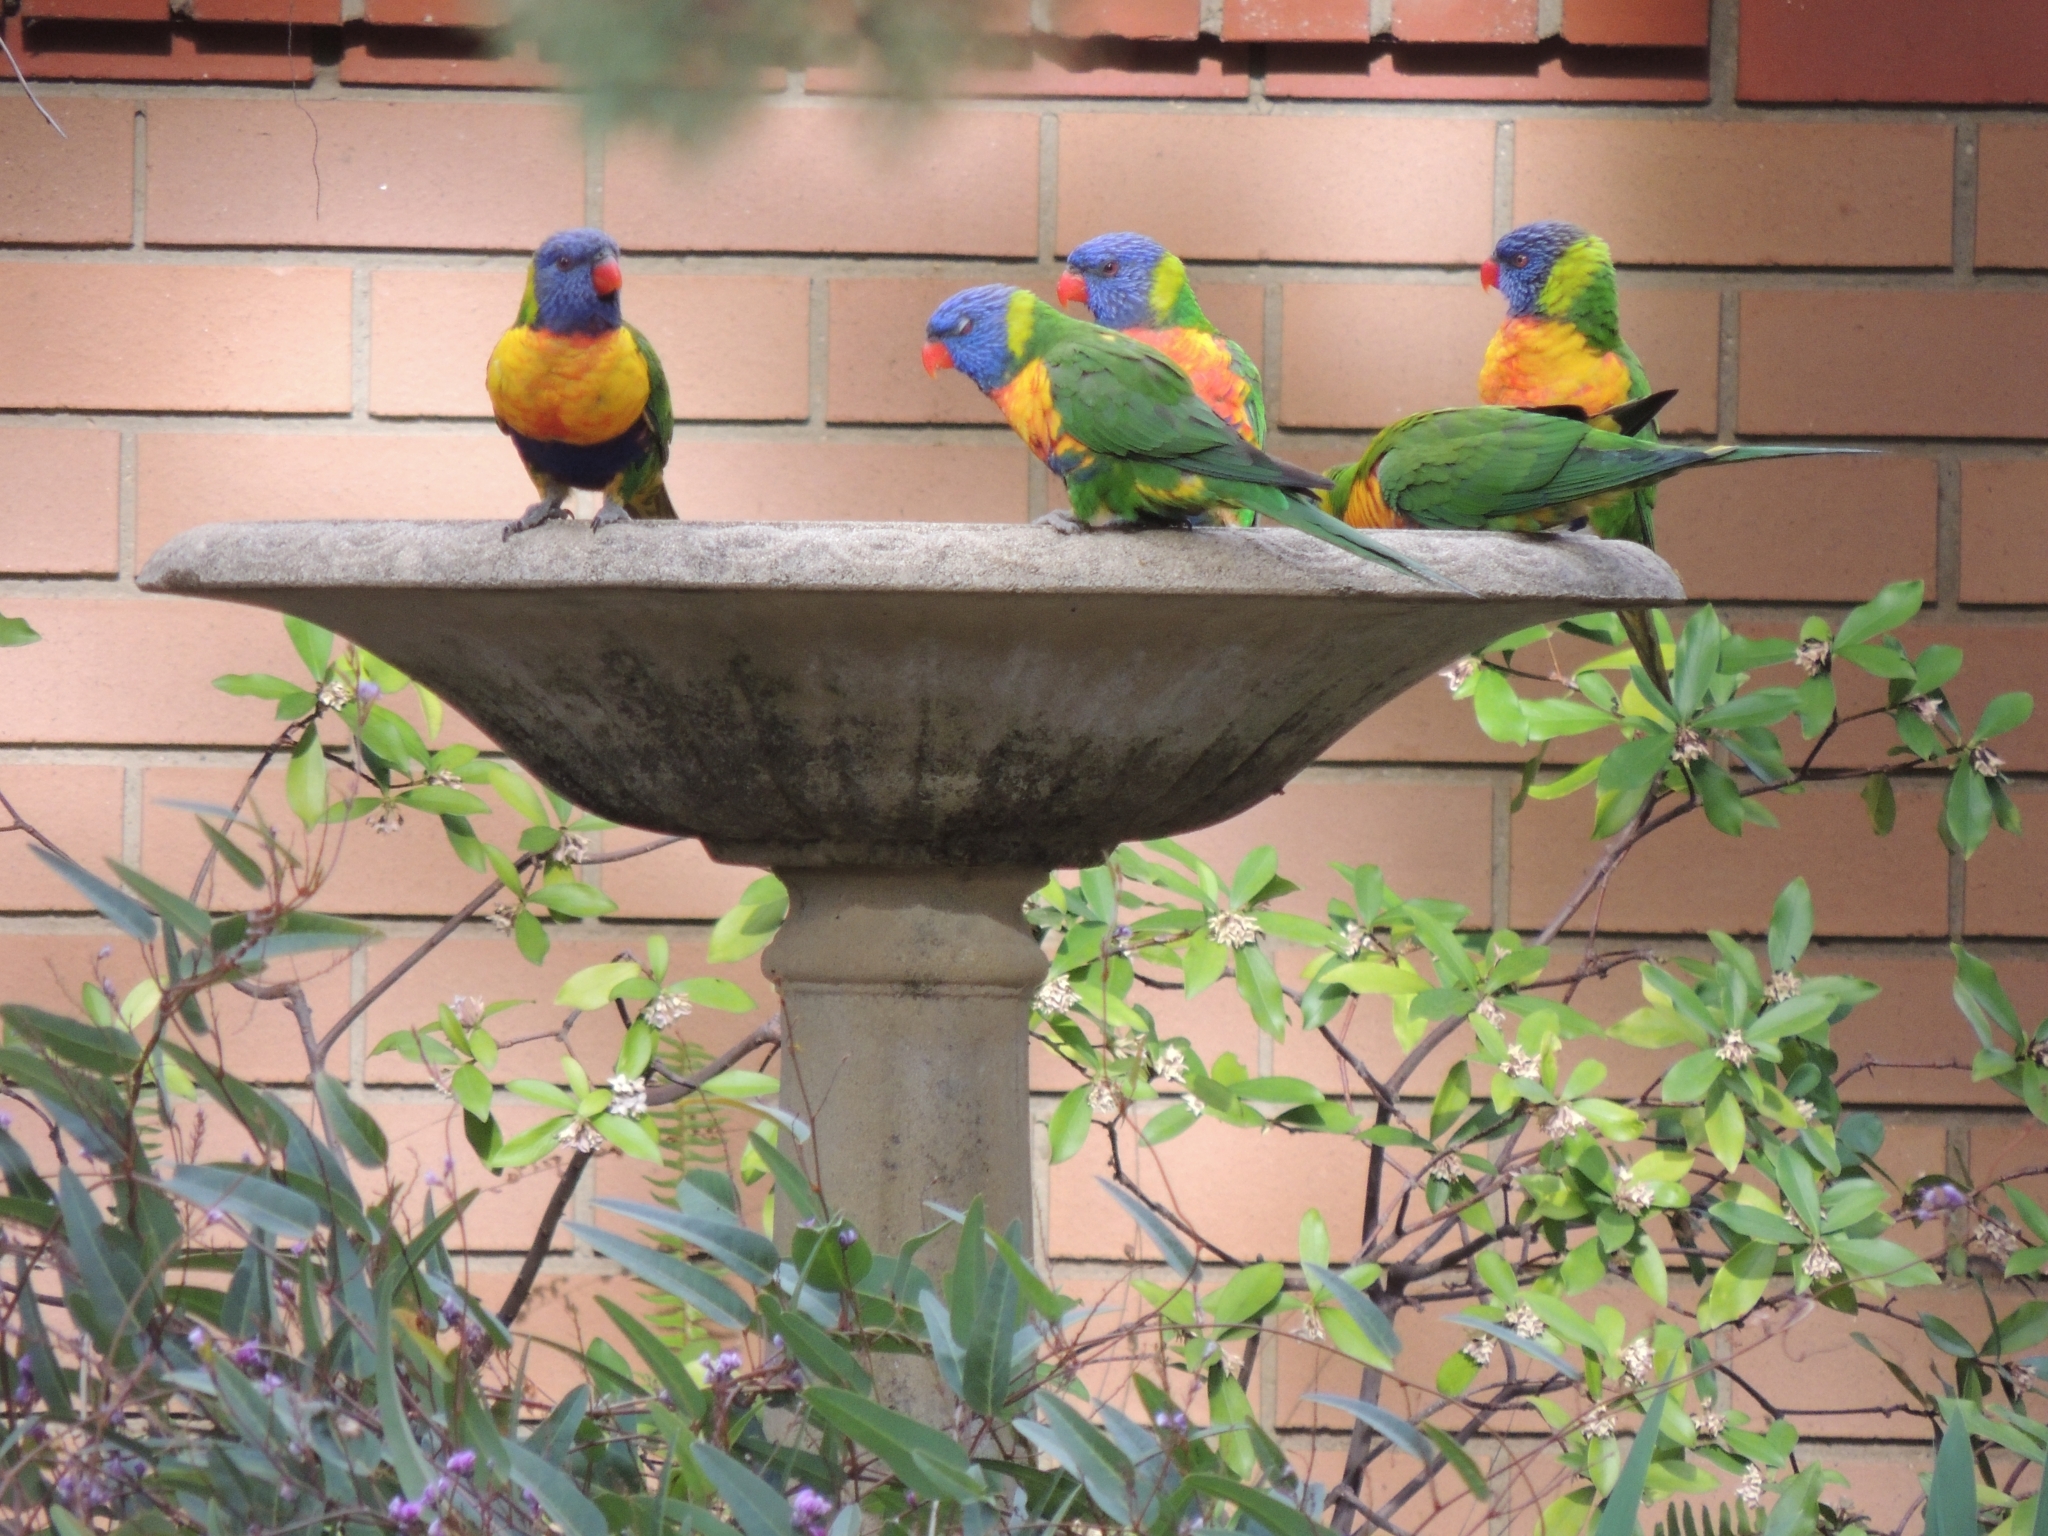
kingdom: Animalia
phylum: Chordata
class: Aves
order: Psittaciformes
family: Psittacidae
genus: Trichoglossus
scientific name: Trichoglossus haematodus
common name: Coconut lorikeet
